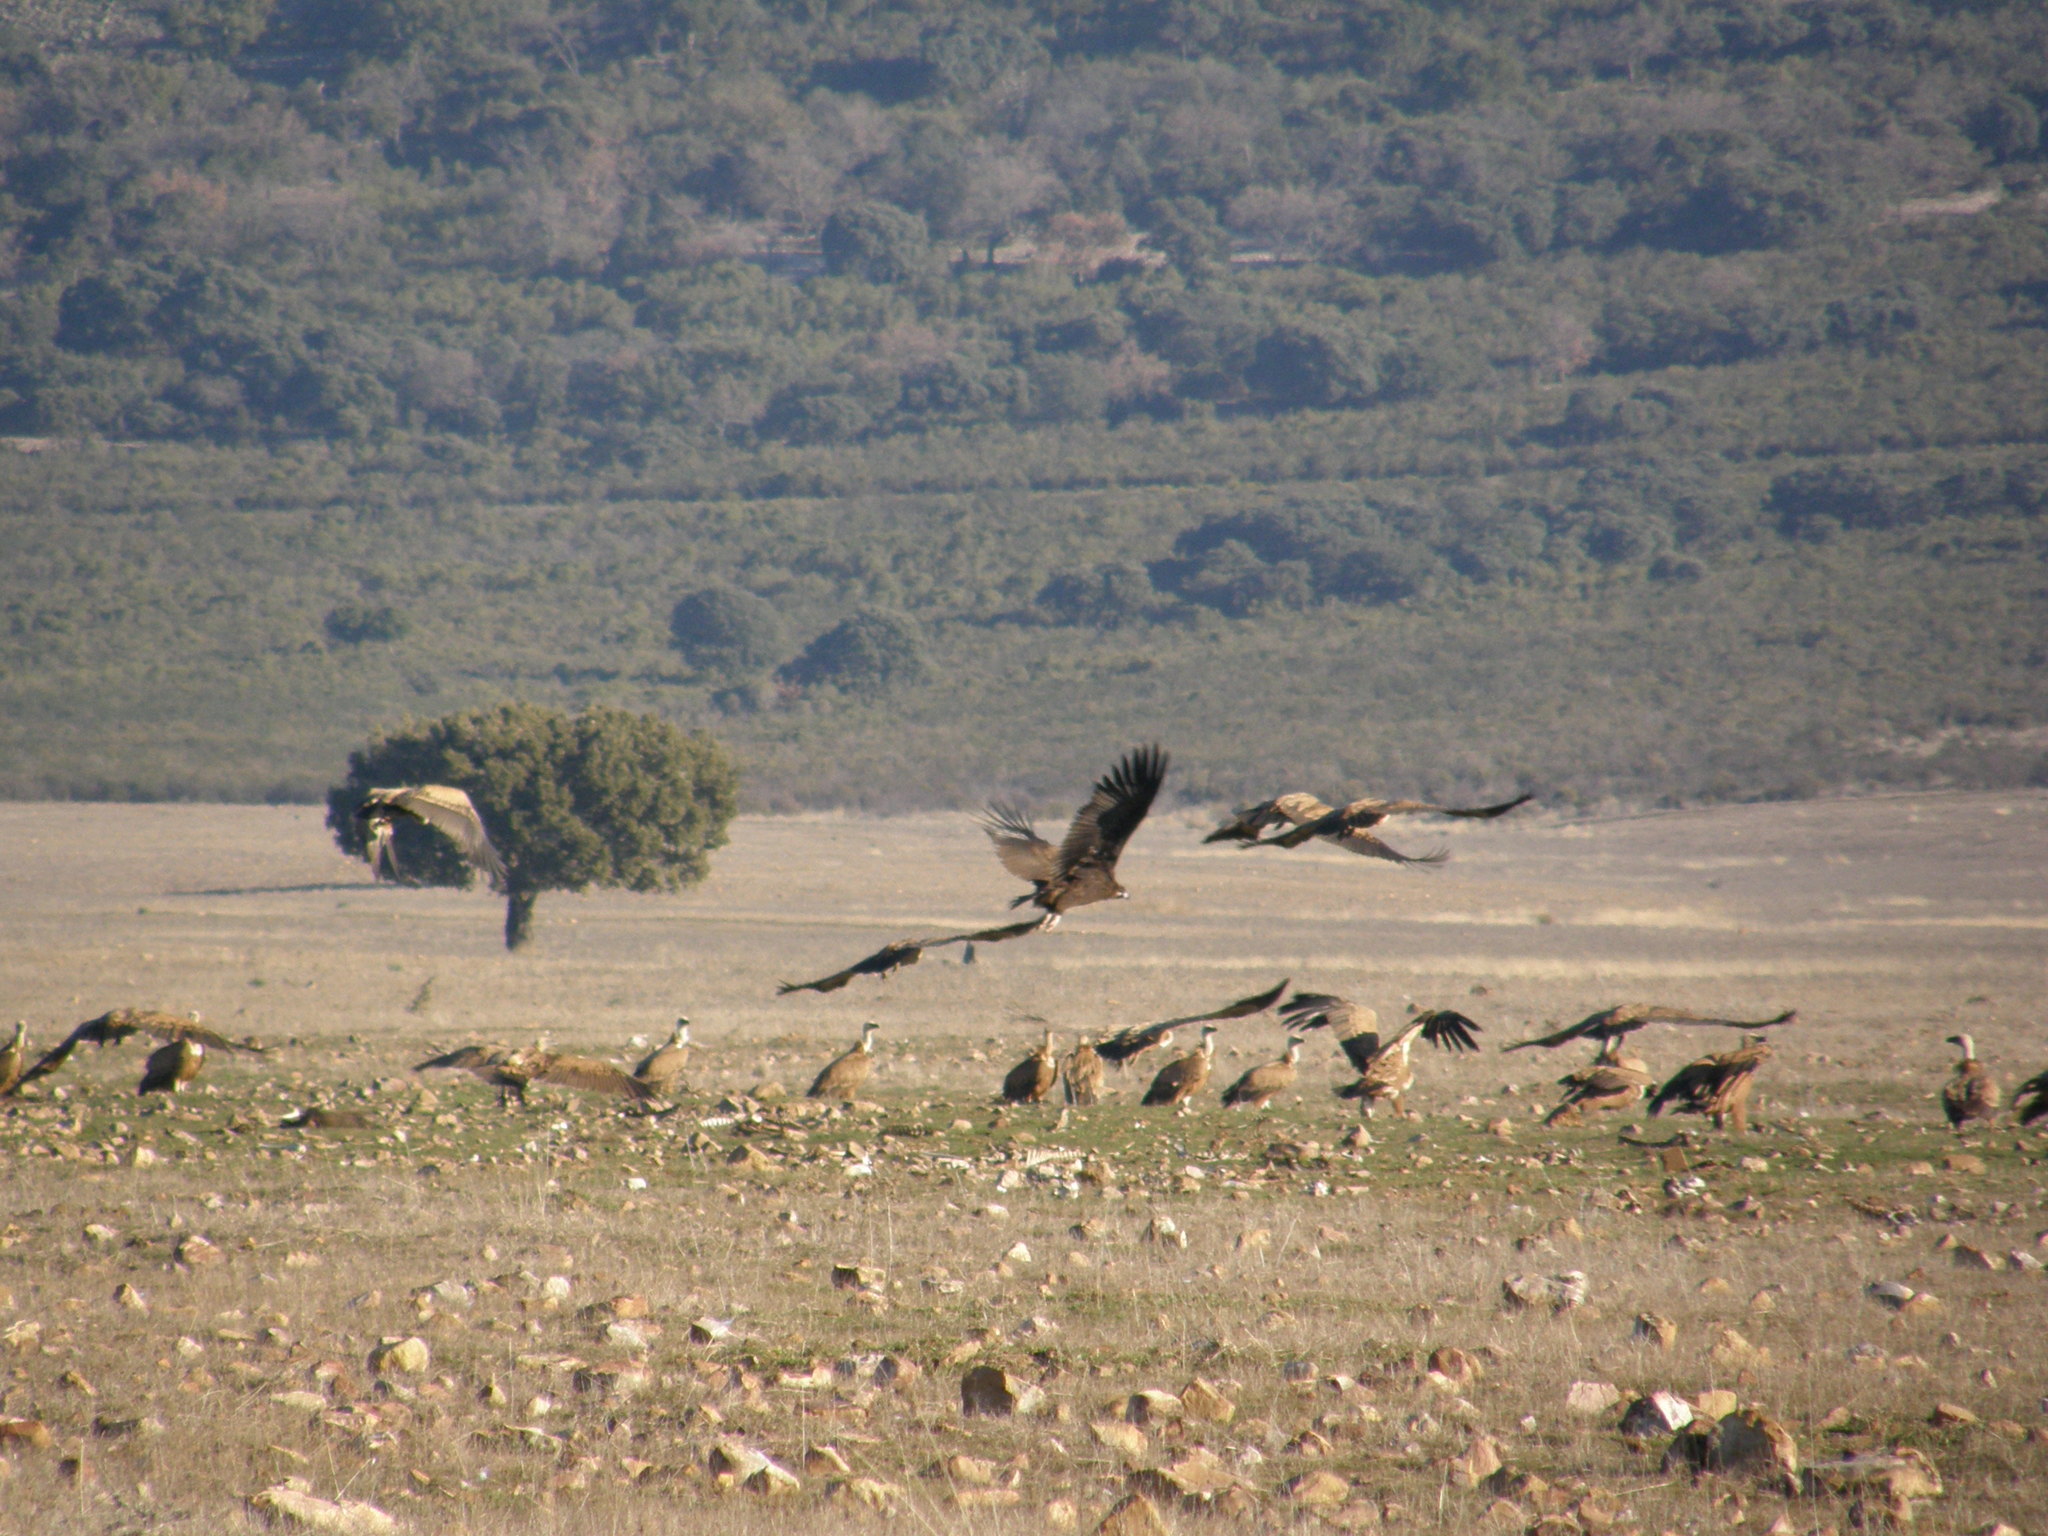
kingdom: Animalia
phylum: Chordata
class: Aves
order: Accipitriformes
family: Accipitridae
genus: Aegypius
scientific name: Aegypius monachus
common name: Cinereous vulture
